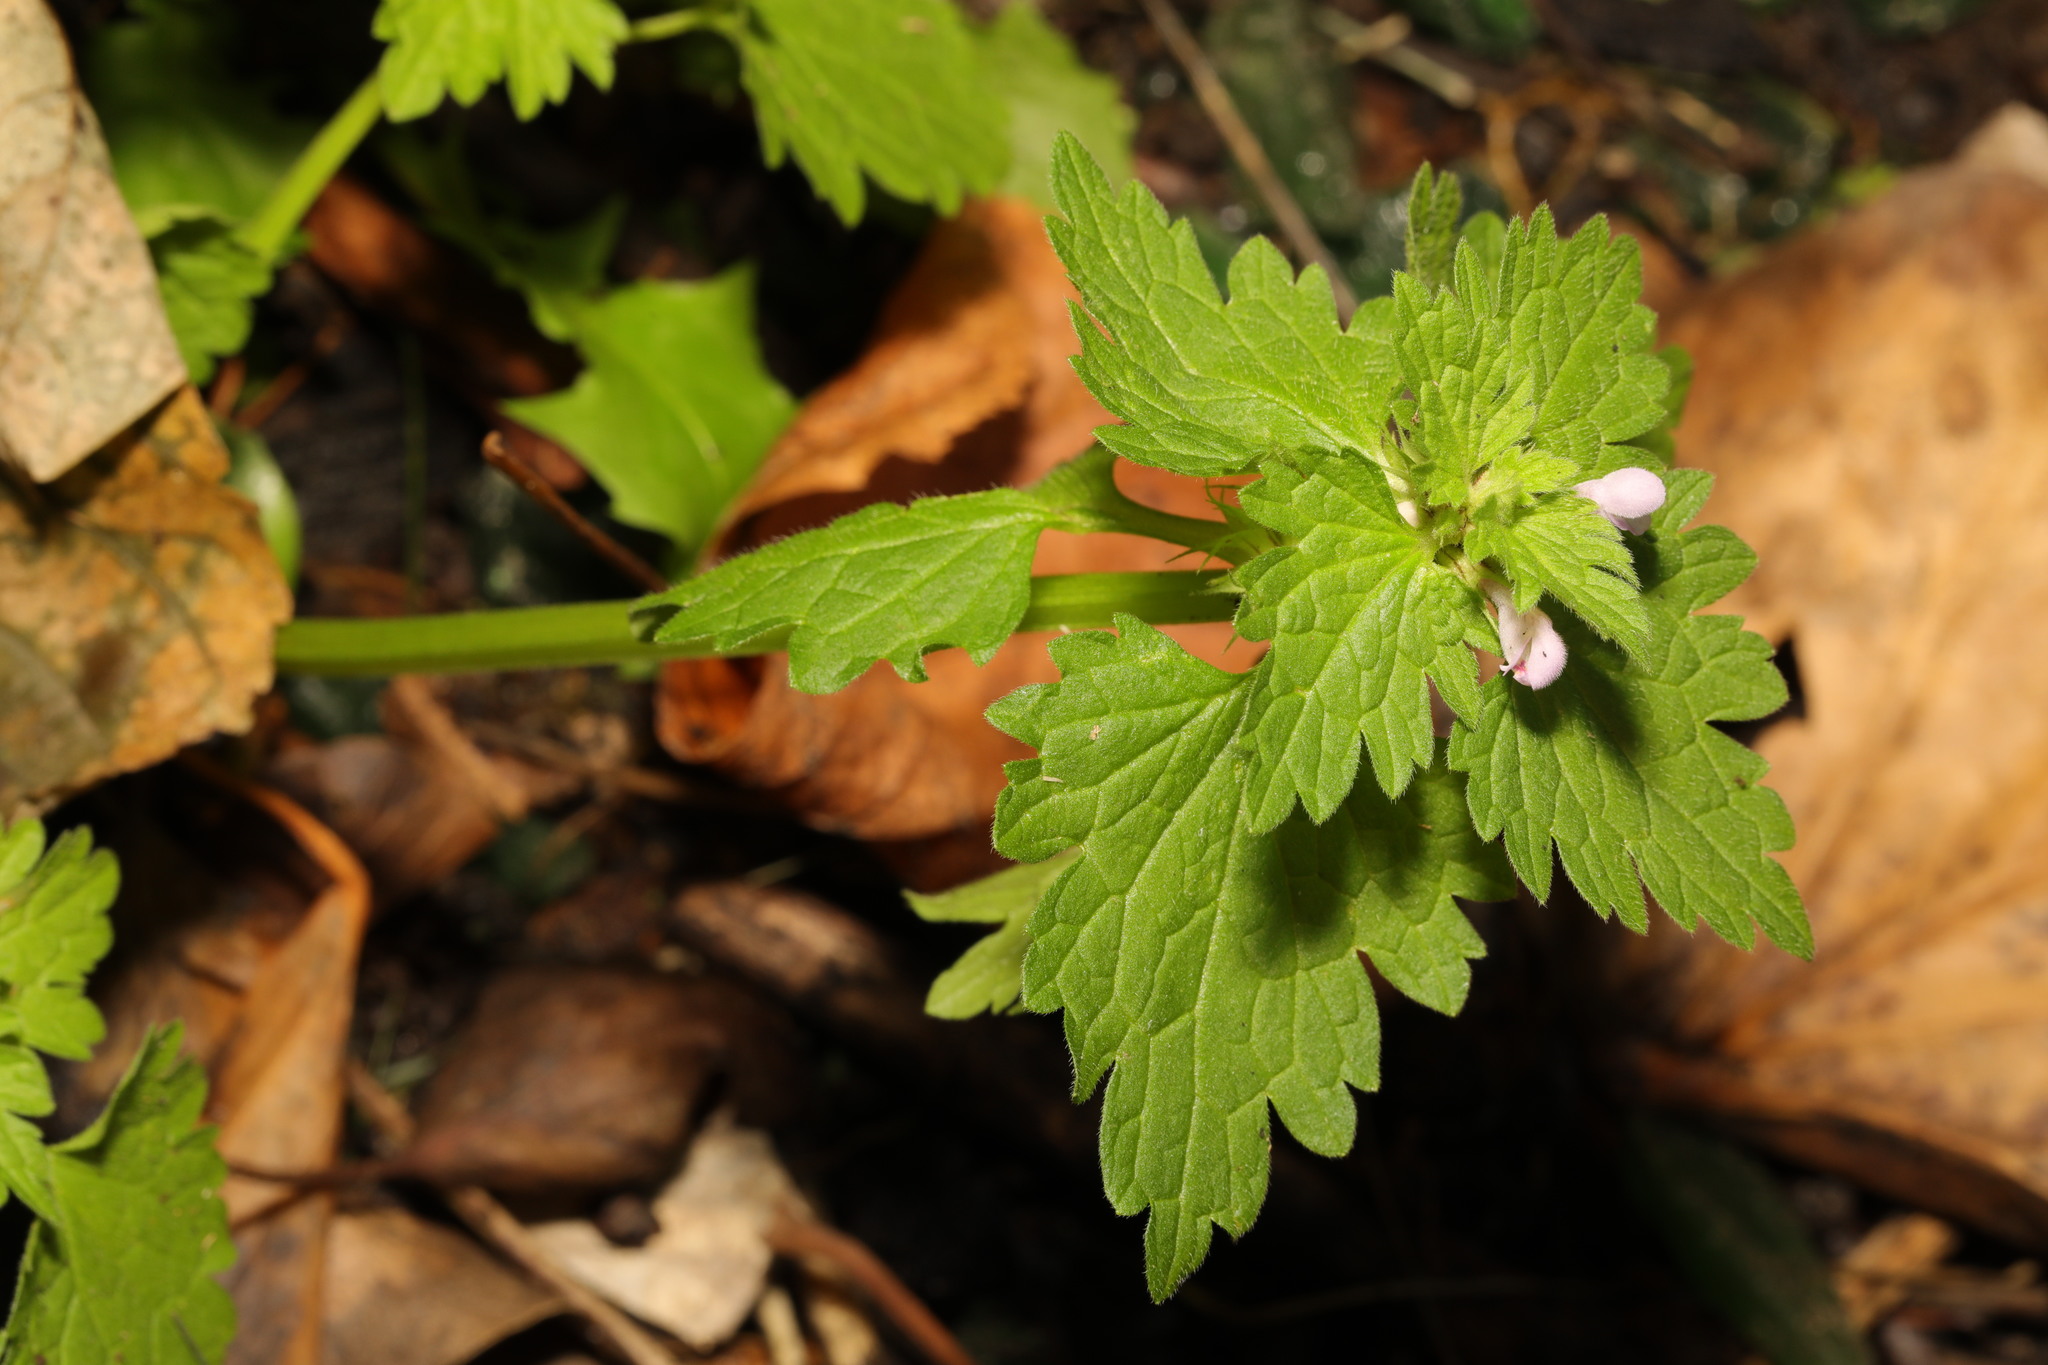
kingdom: Plantae
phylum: Tracheophyta
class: Magnoliopsida
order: Lamiales
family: Lamiaceae
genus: Lamium
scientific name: Lamium purpureum
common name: Red dead-nettle
